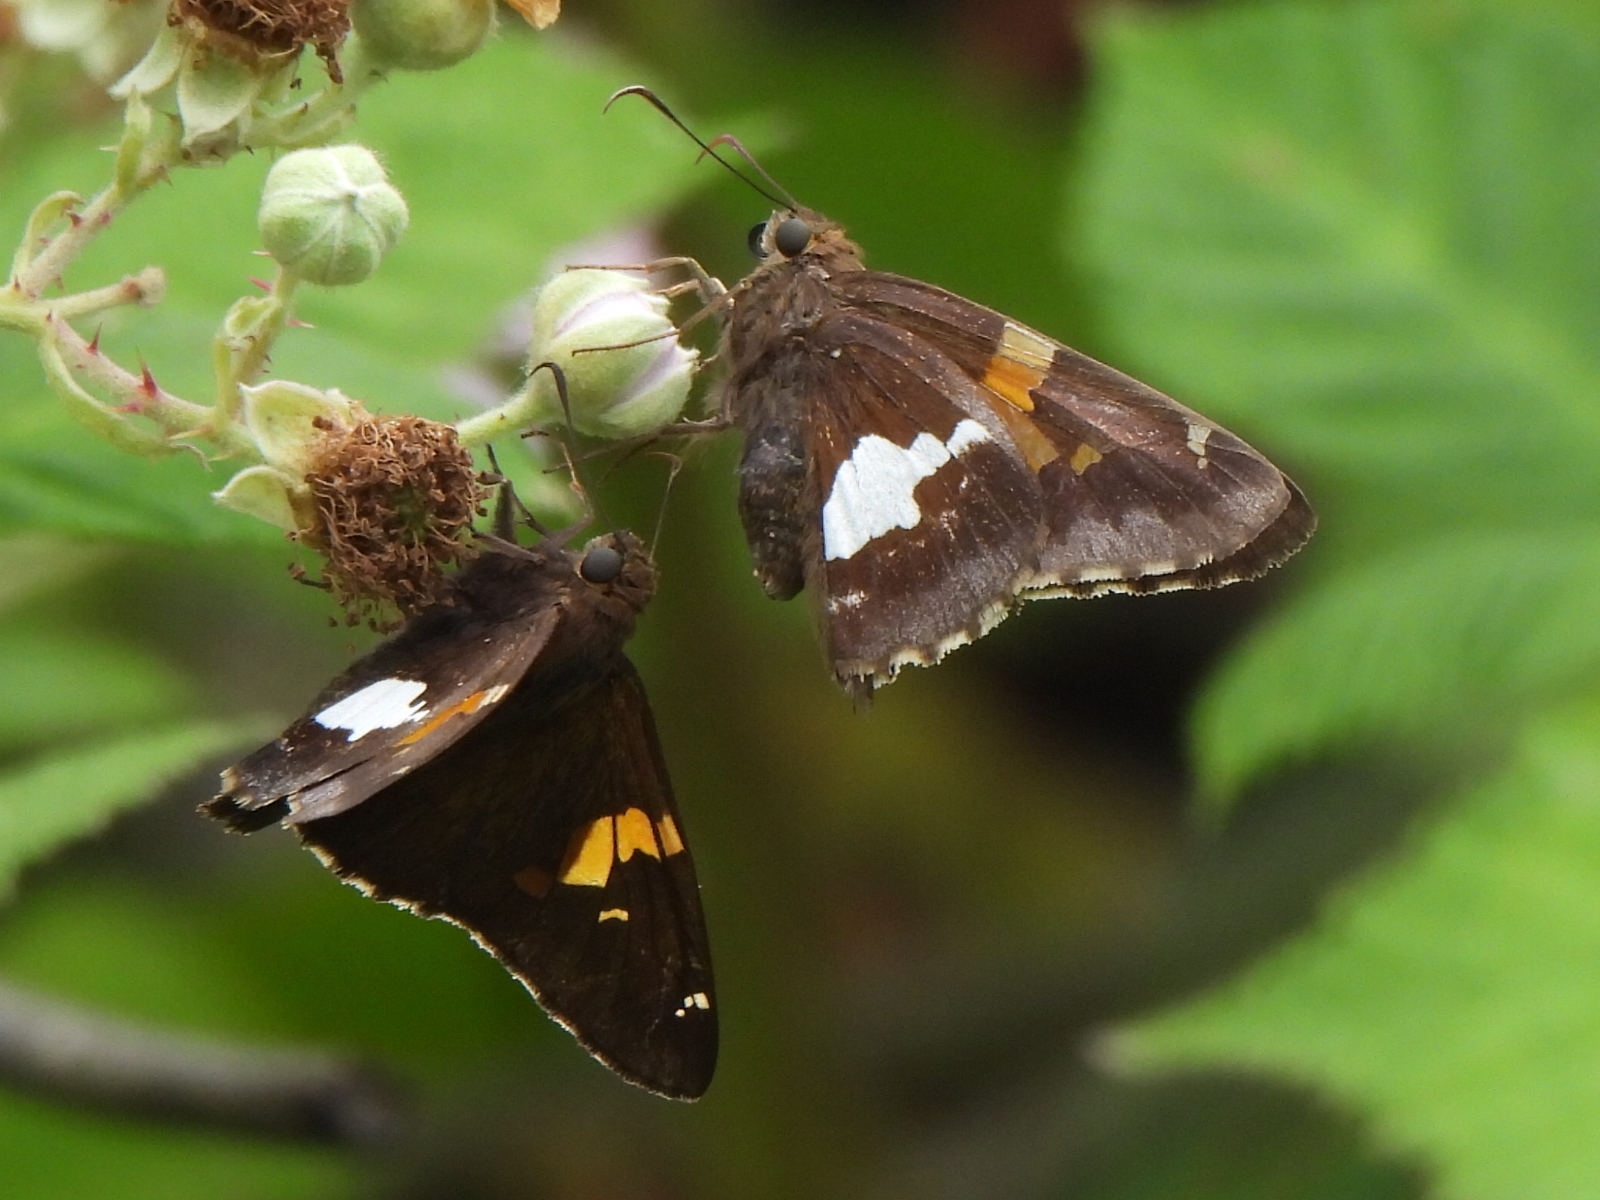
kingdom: Animalia
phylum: Arthropoda
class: Insecta
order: Lepidoptera
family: Hesperiidae
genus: Epargyreus
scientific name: Epargyreus clarus
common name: Silver-spotted skipper
